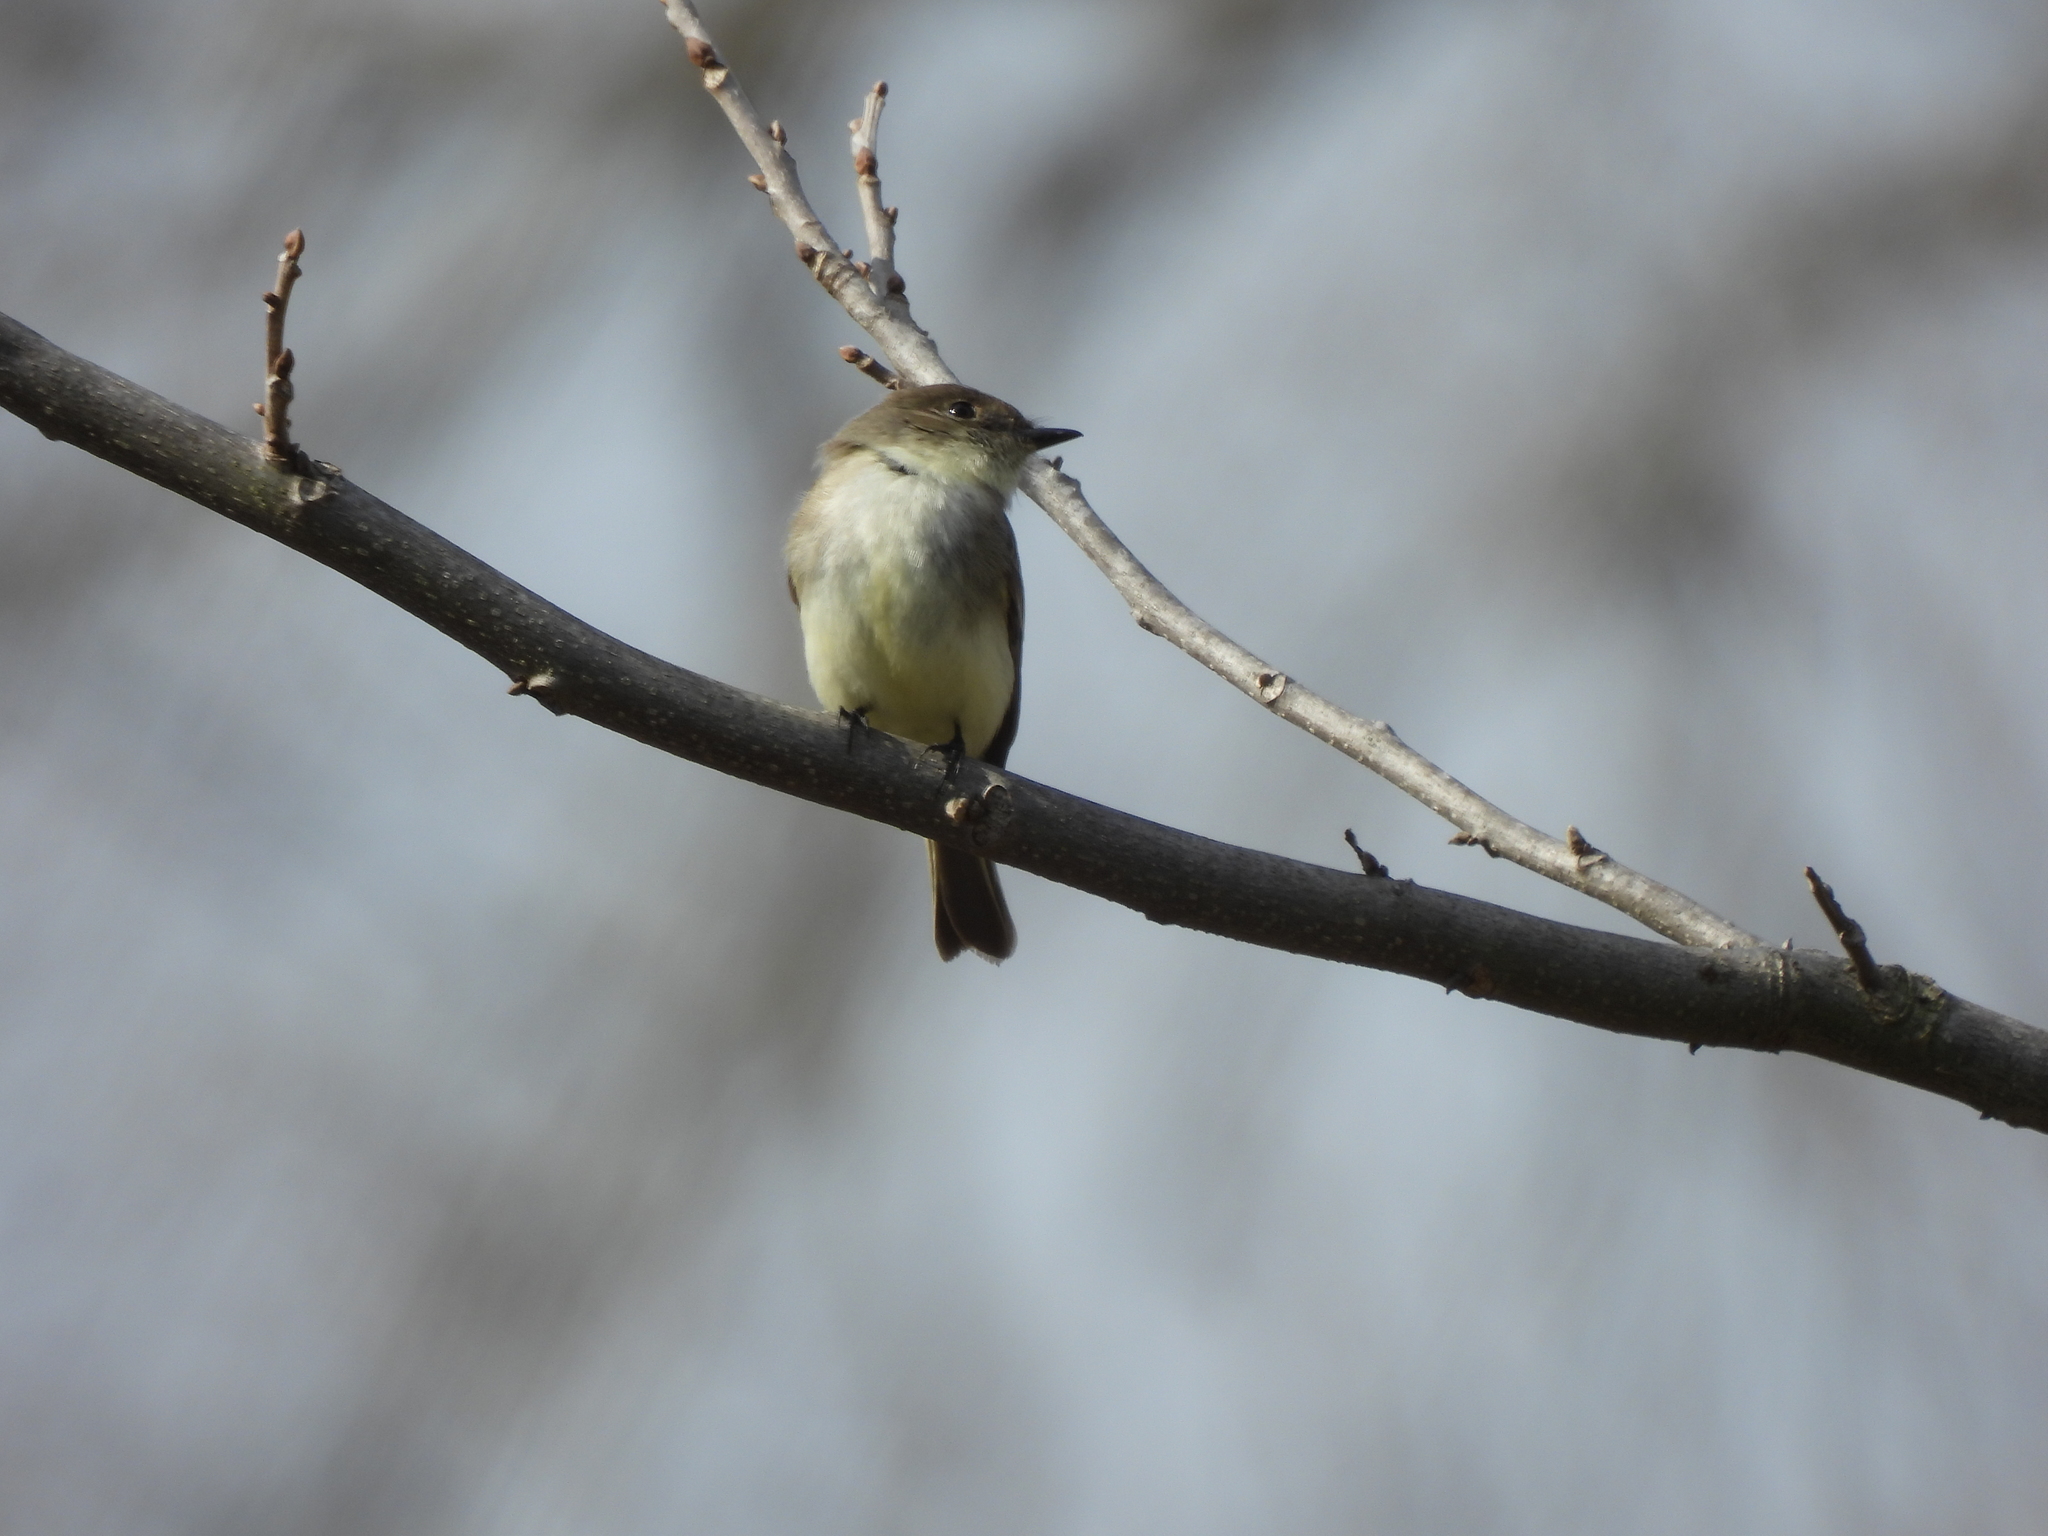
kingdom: Animalia
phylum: Chordata
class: Aves
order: Passeriformes
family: Tyrannidae
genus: Sayornis
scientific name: Sayornis phoebe
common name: Eastern phoebe
